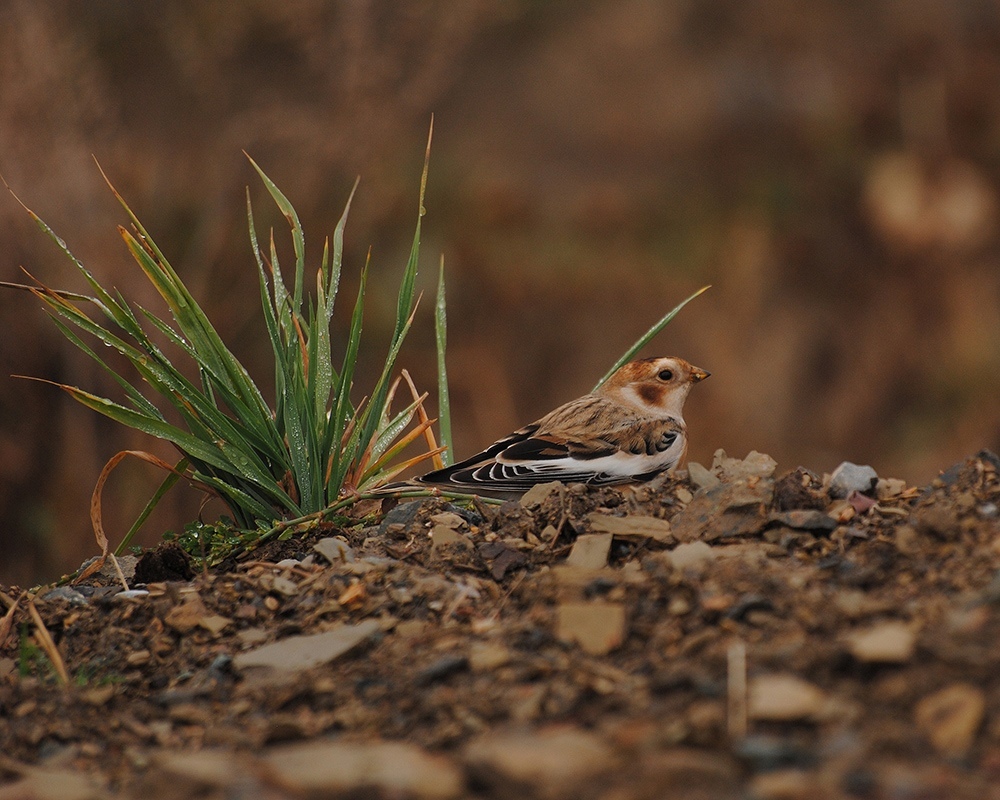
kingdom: Animalia
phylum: Chordata
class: Aves
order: Passeriformes
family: Calcariidae
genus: Plectrophenax
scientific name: Plectrophenax nivalis
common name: Snow bunting
